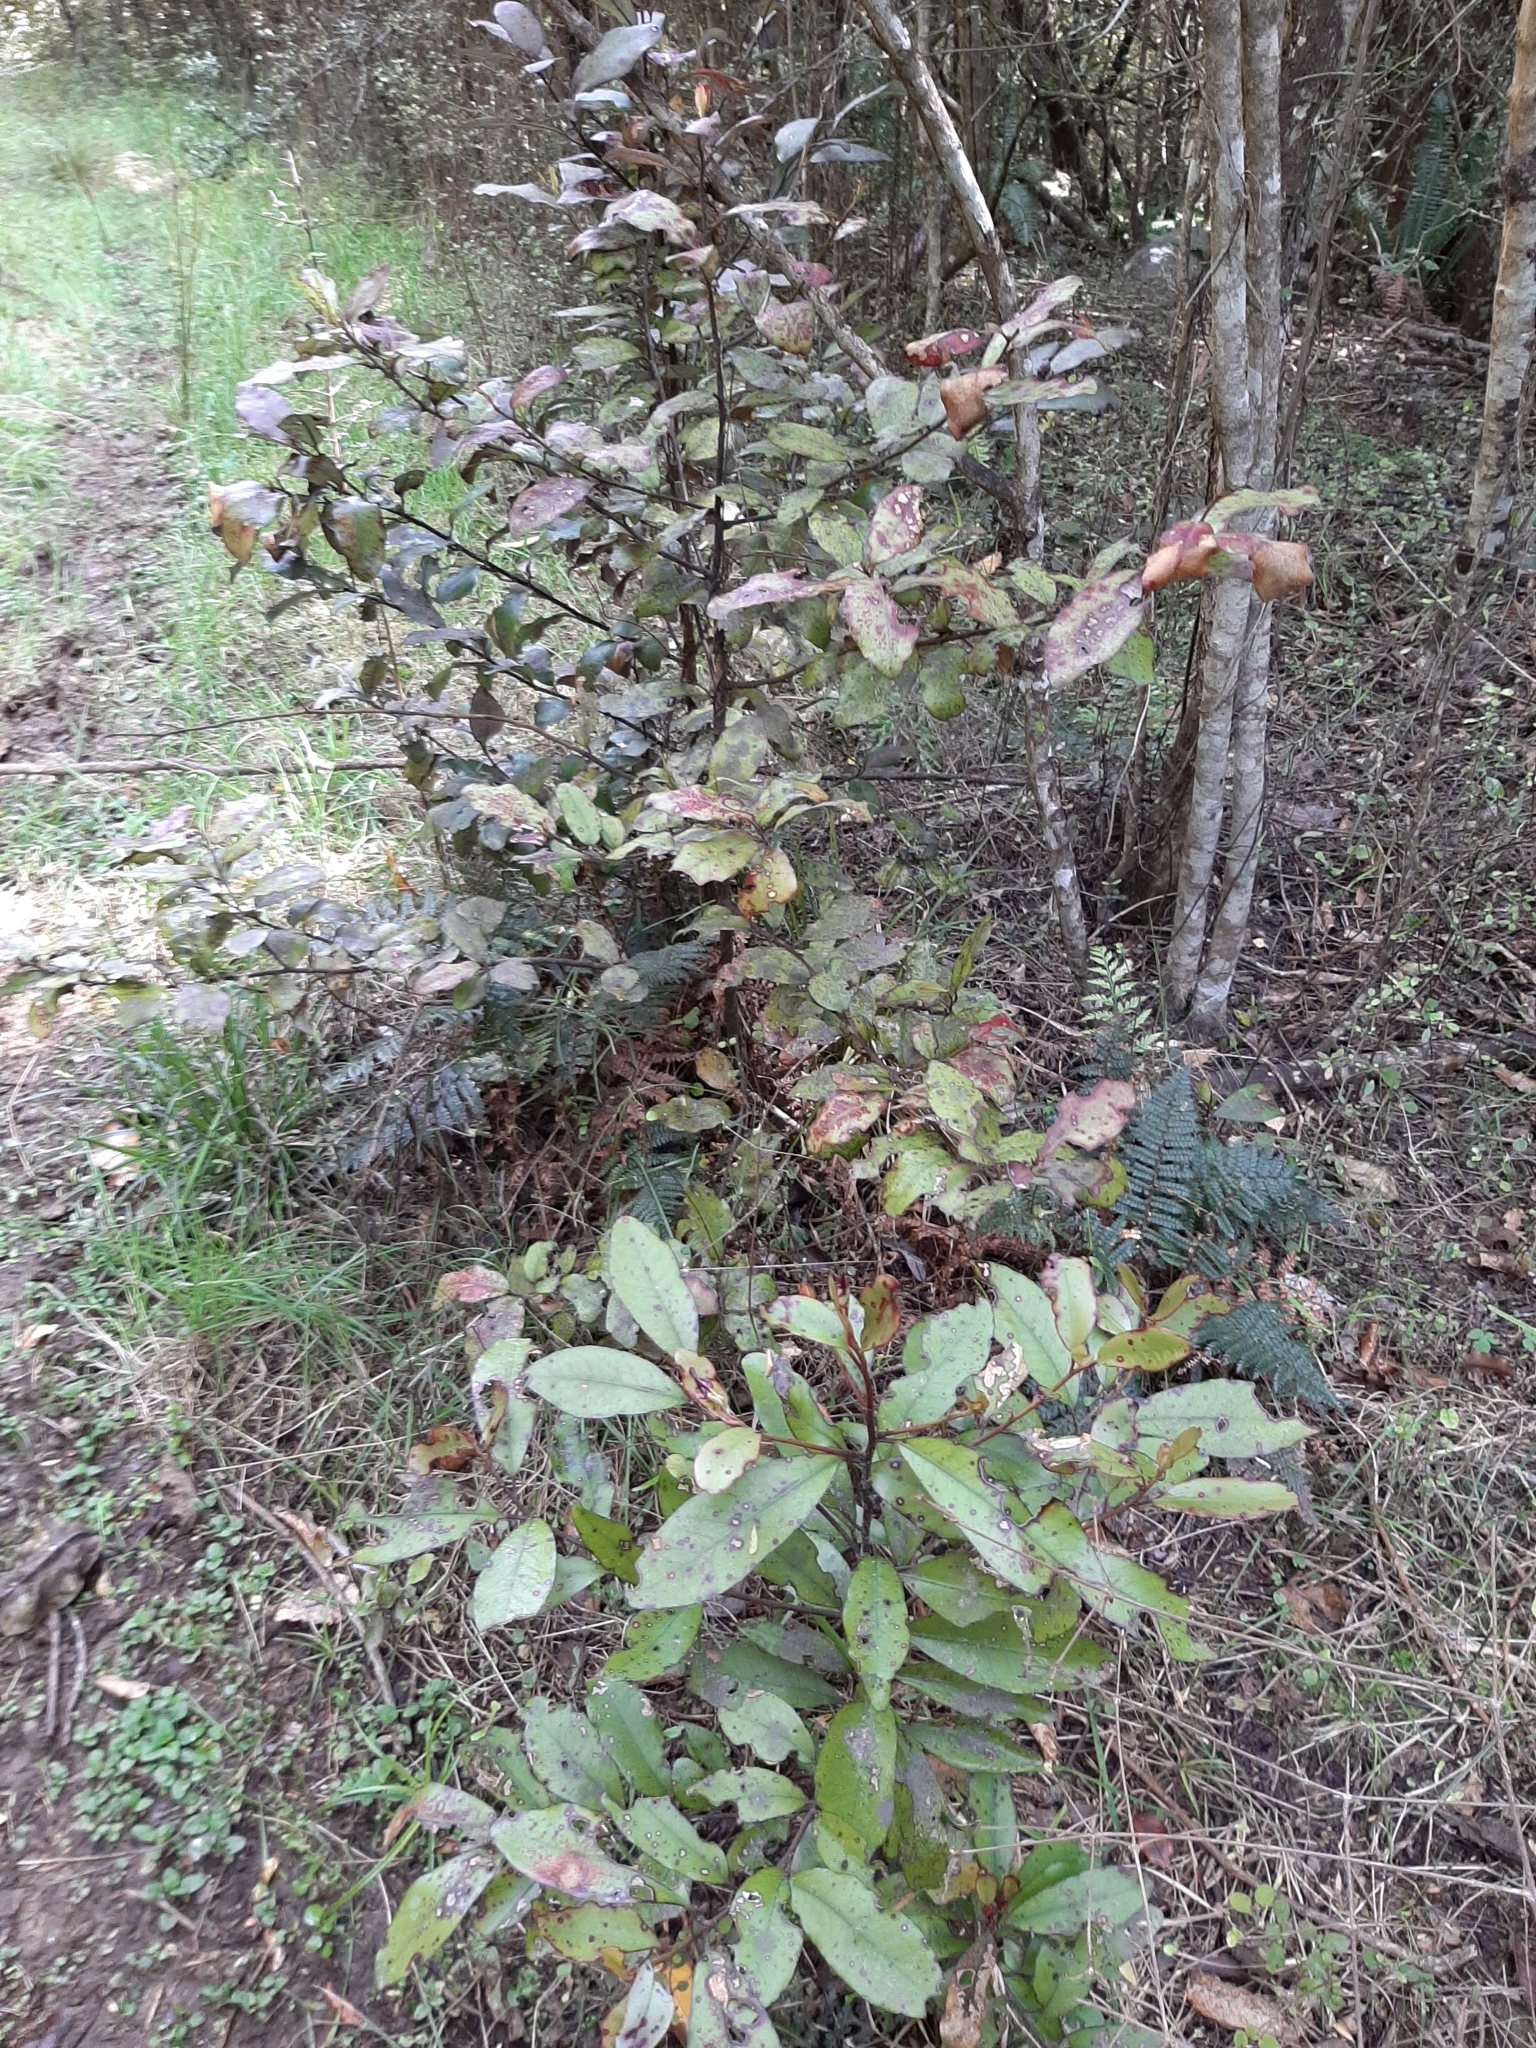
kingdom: Plantae
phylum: Tracheophyta
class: Magnoliopsida
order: Canellales
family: Winteraceae
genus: Pseudowintera
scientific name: Pseudowintera colorata
